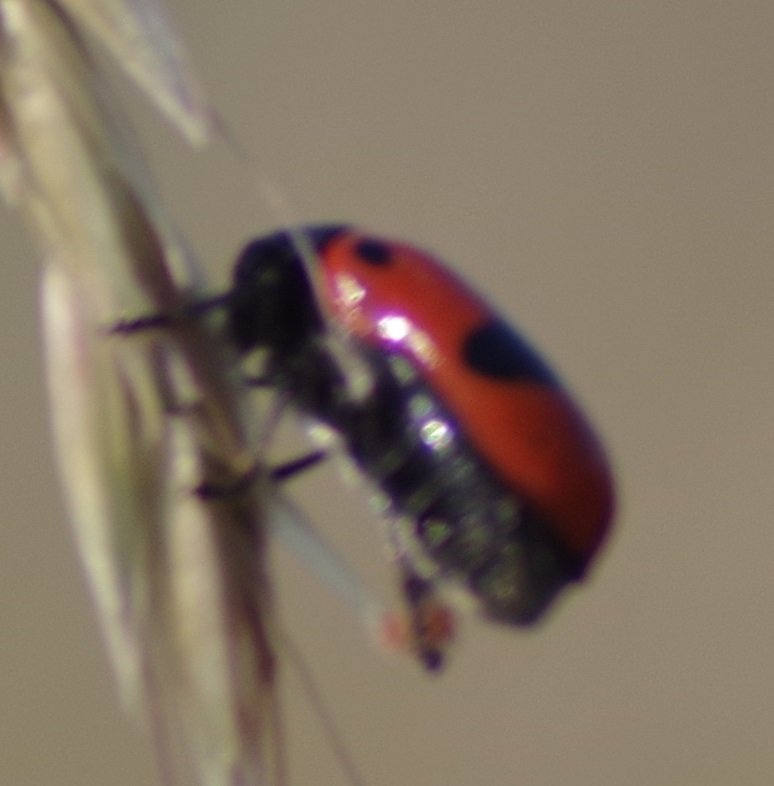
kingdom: Animalia
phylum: Arthropoda
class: Insecta
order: Coleoptera
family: Chrysomelidae
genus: Clytra
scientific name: Clytra laeviuscula
